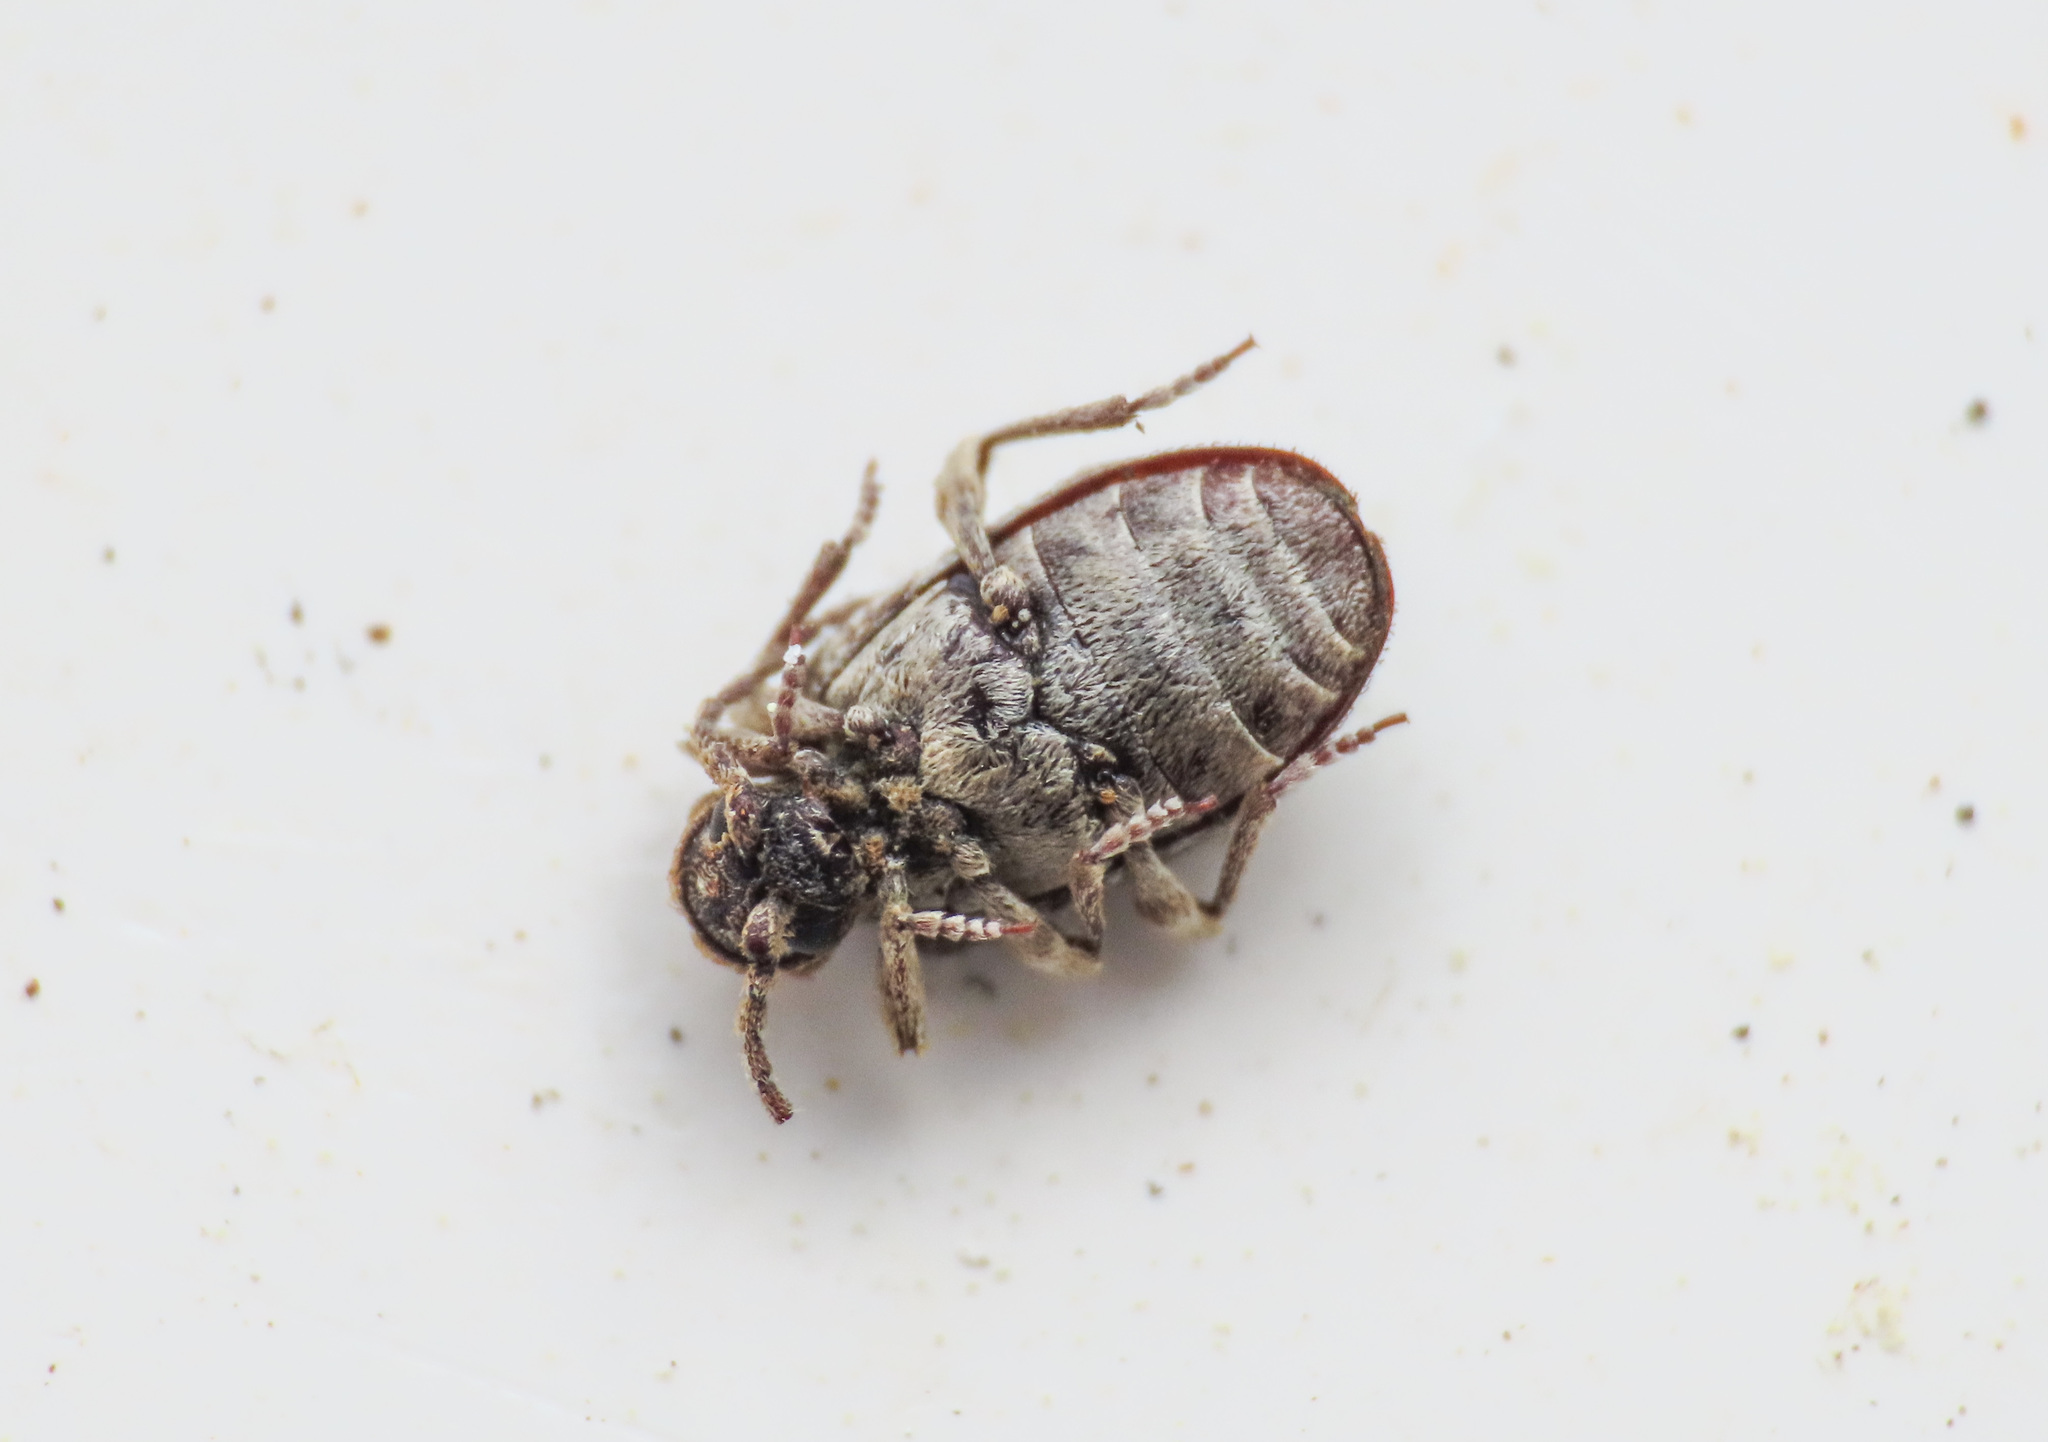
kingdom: Animalia
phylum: Arthropoda
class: Insecta
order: Coleoptera
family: Ptinidae
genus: Ptinus
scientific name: Ptinus variegatus
